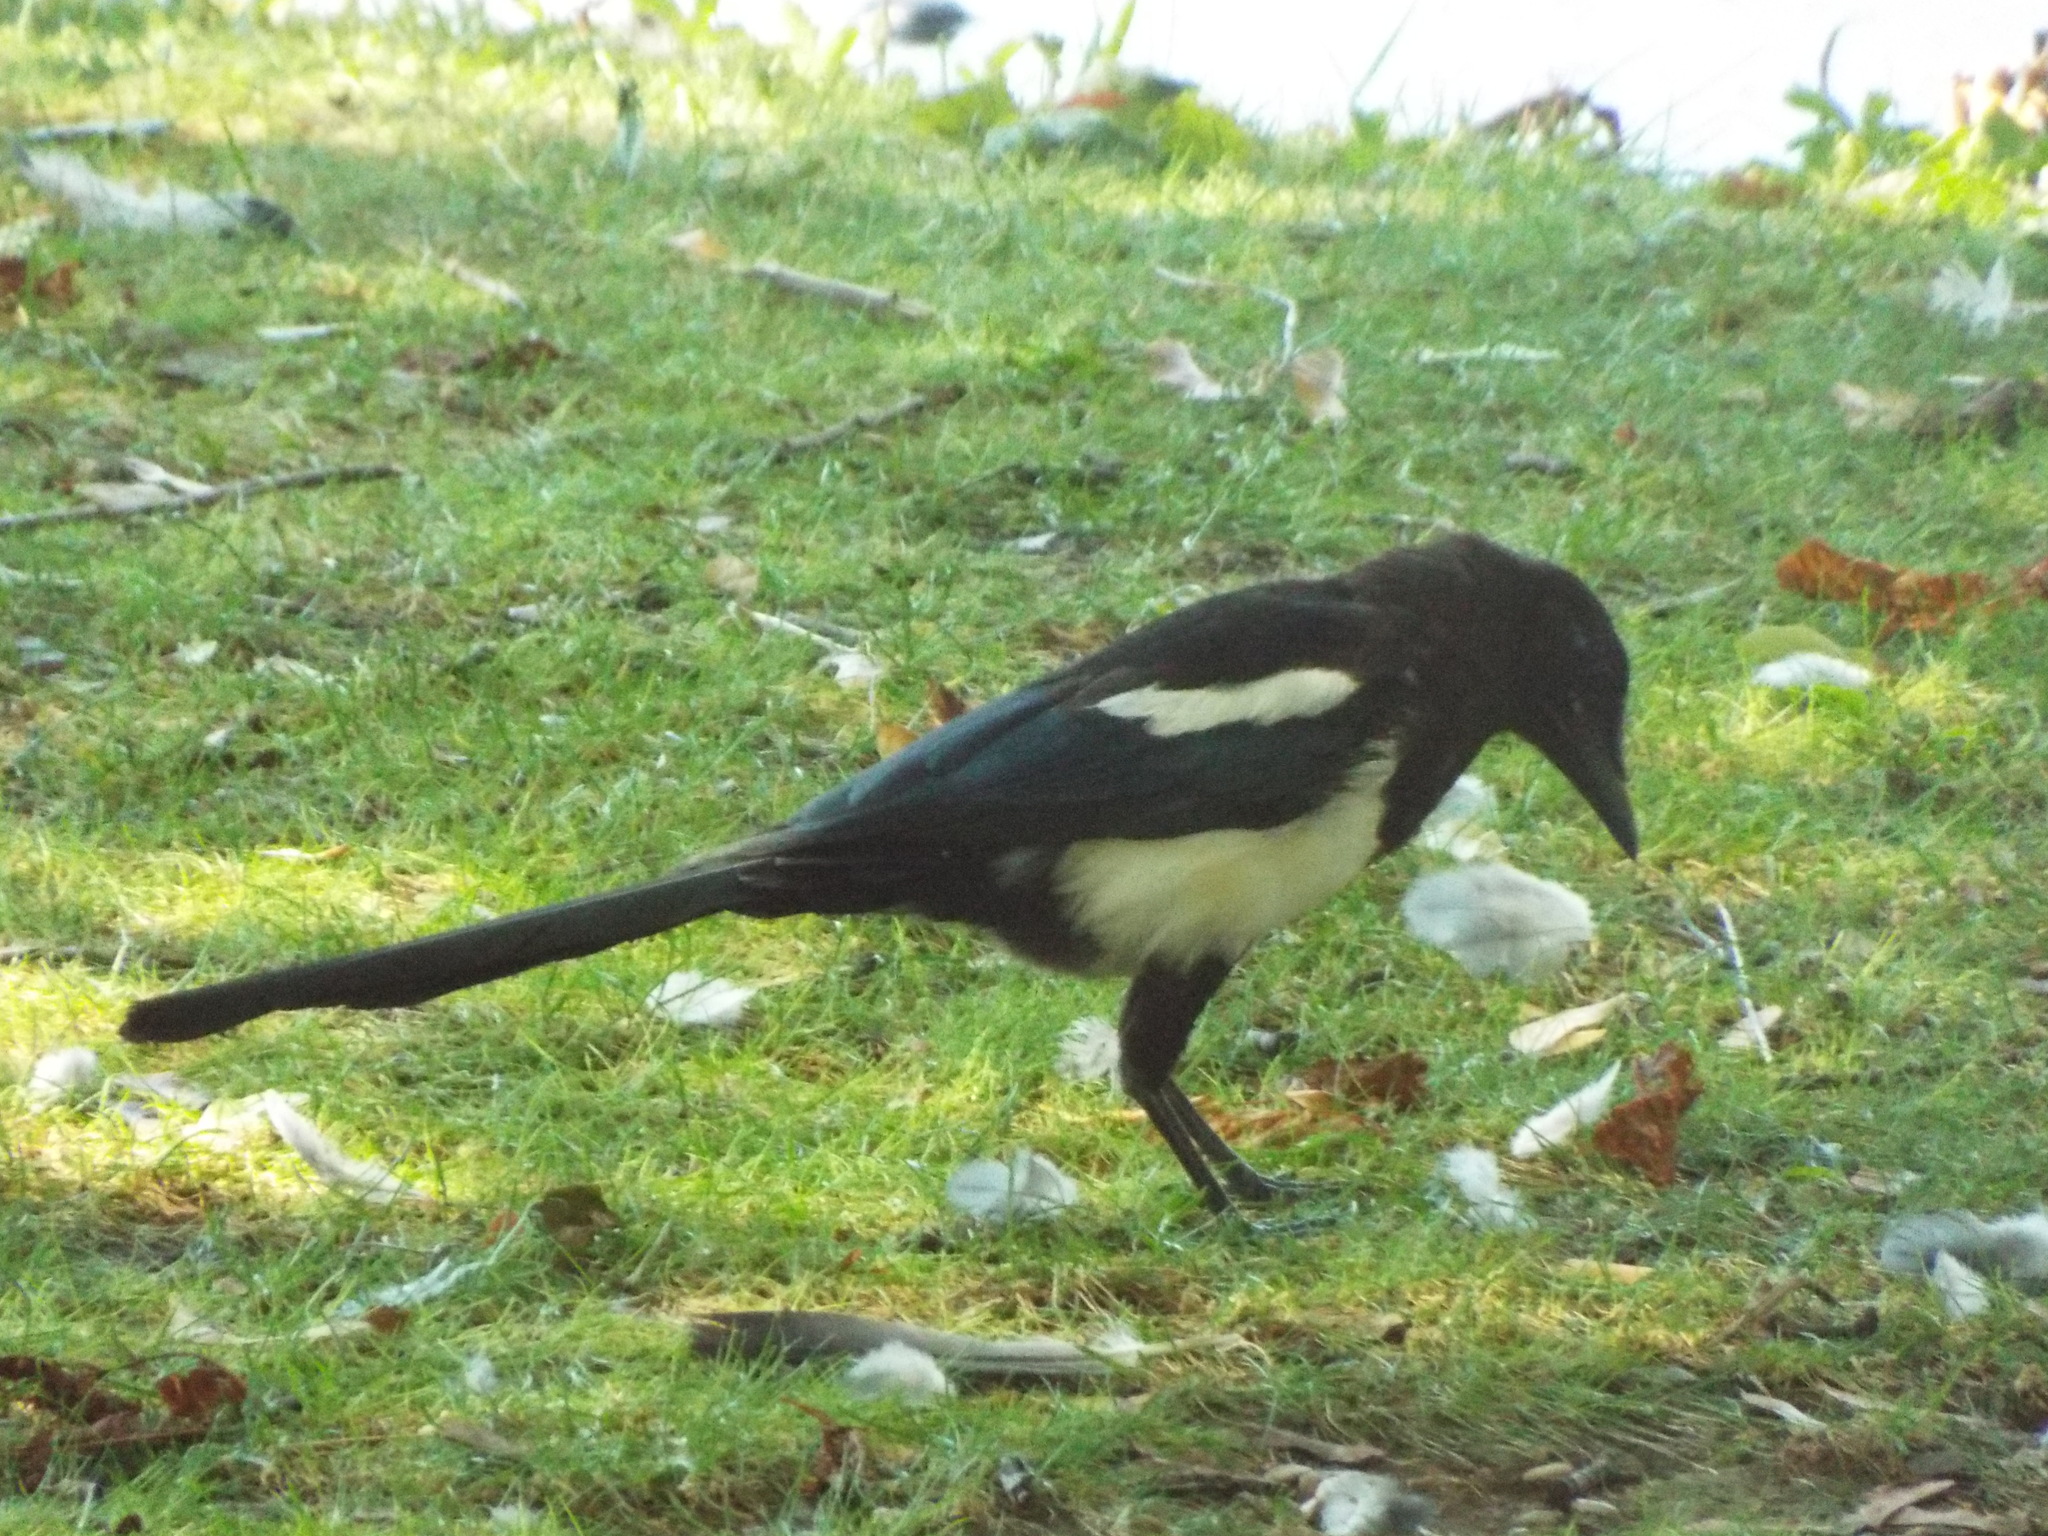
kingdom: Animalia
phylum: Chordata
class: Aves
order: Passeriformes
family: Corvidae
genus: Pica
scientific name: Pica pica
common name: Eurasian magpie
